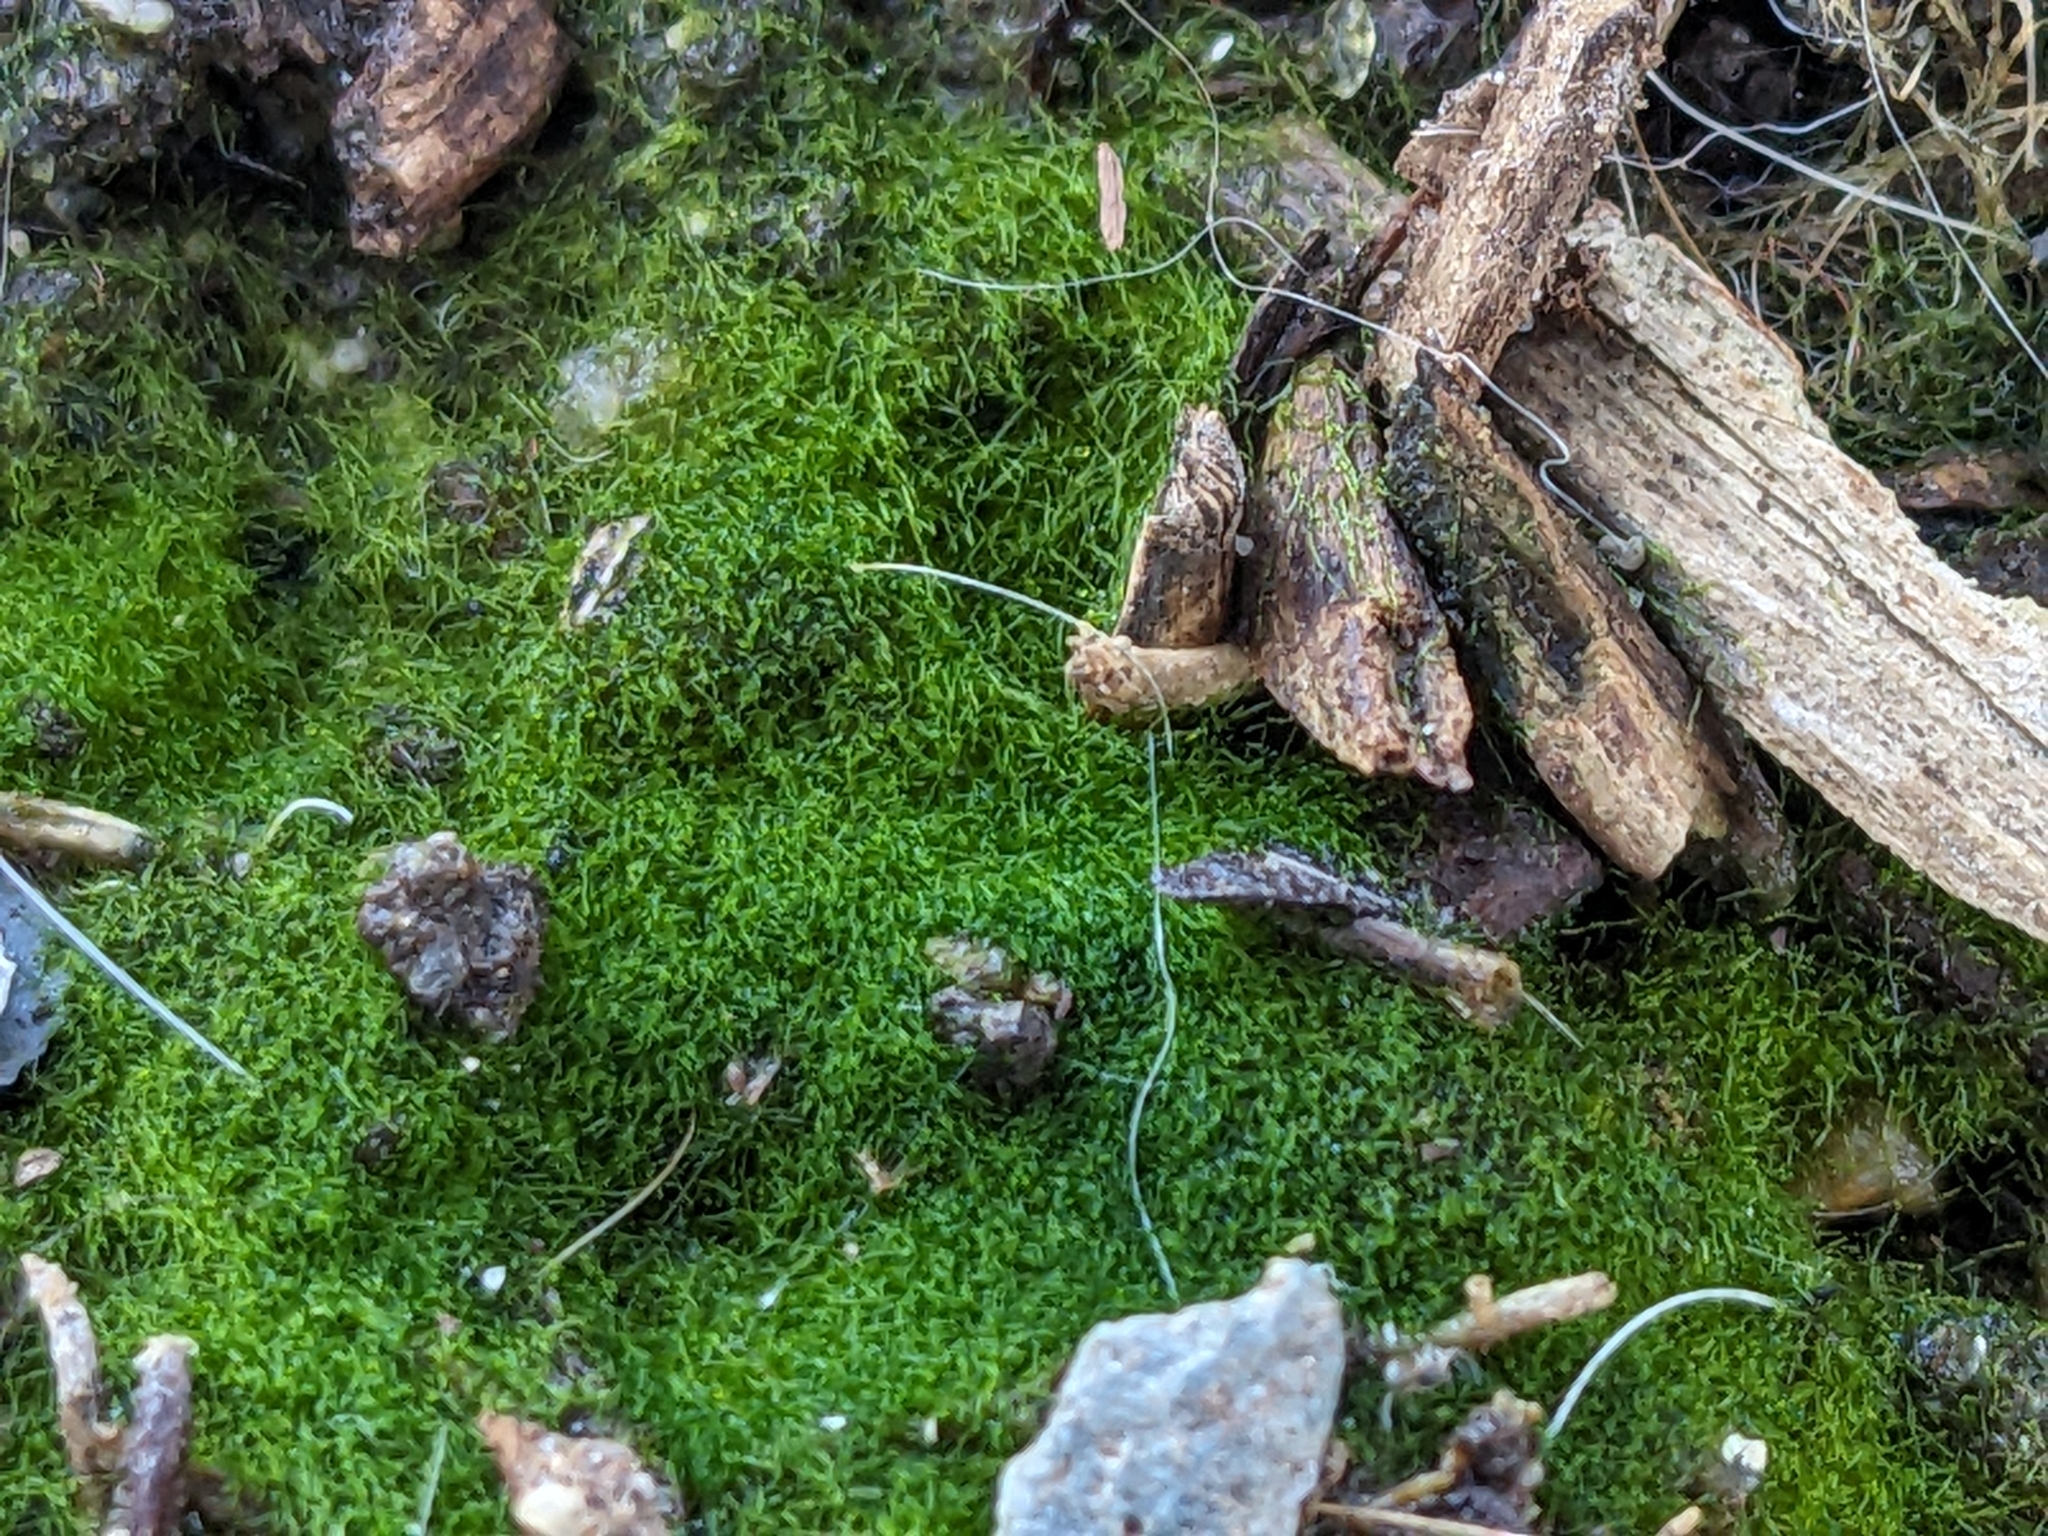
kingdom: Chromista
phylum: Ochrophyta
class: Xanthophyceae
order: Vaucheriales
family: Vaucheriaceae
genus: Vaucheria
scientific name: Vaucheria
